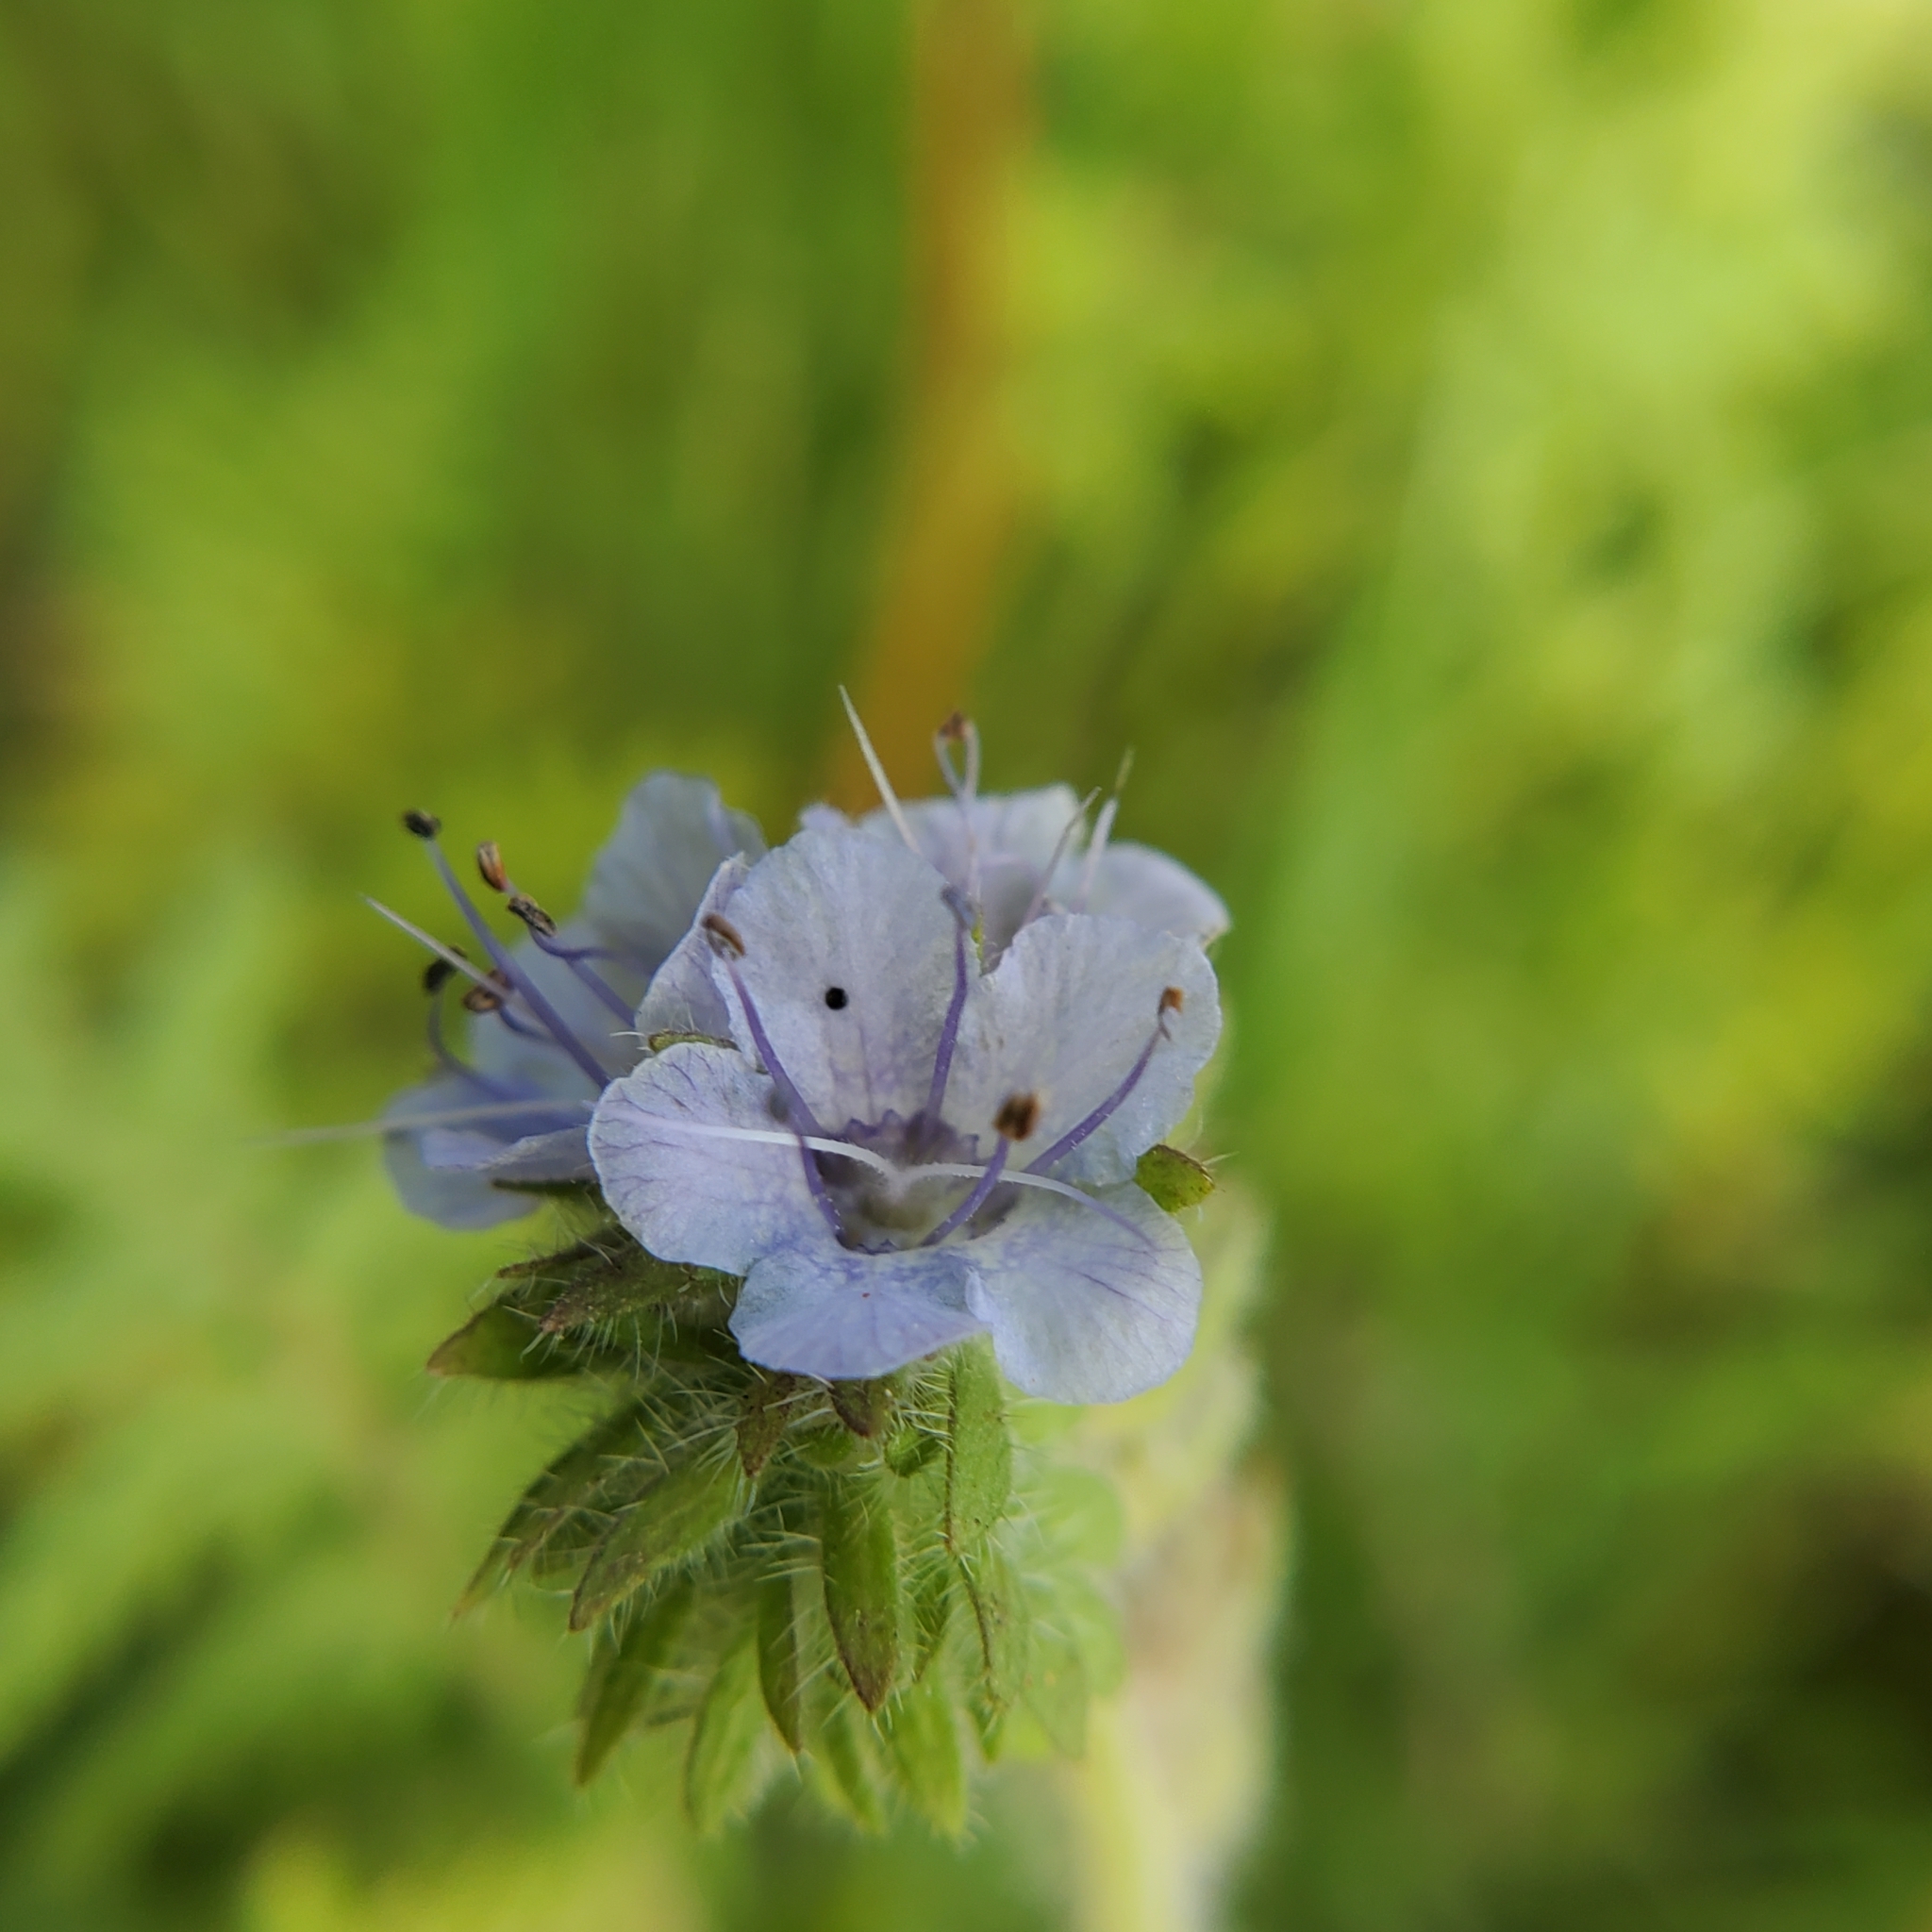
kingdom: Plantae
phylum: Tracheophyta
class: Magnoliopsida
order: Boraginales
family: Hydrophyllaceae
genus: Phacelia
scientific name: Phacelia distans
